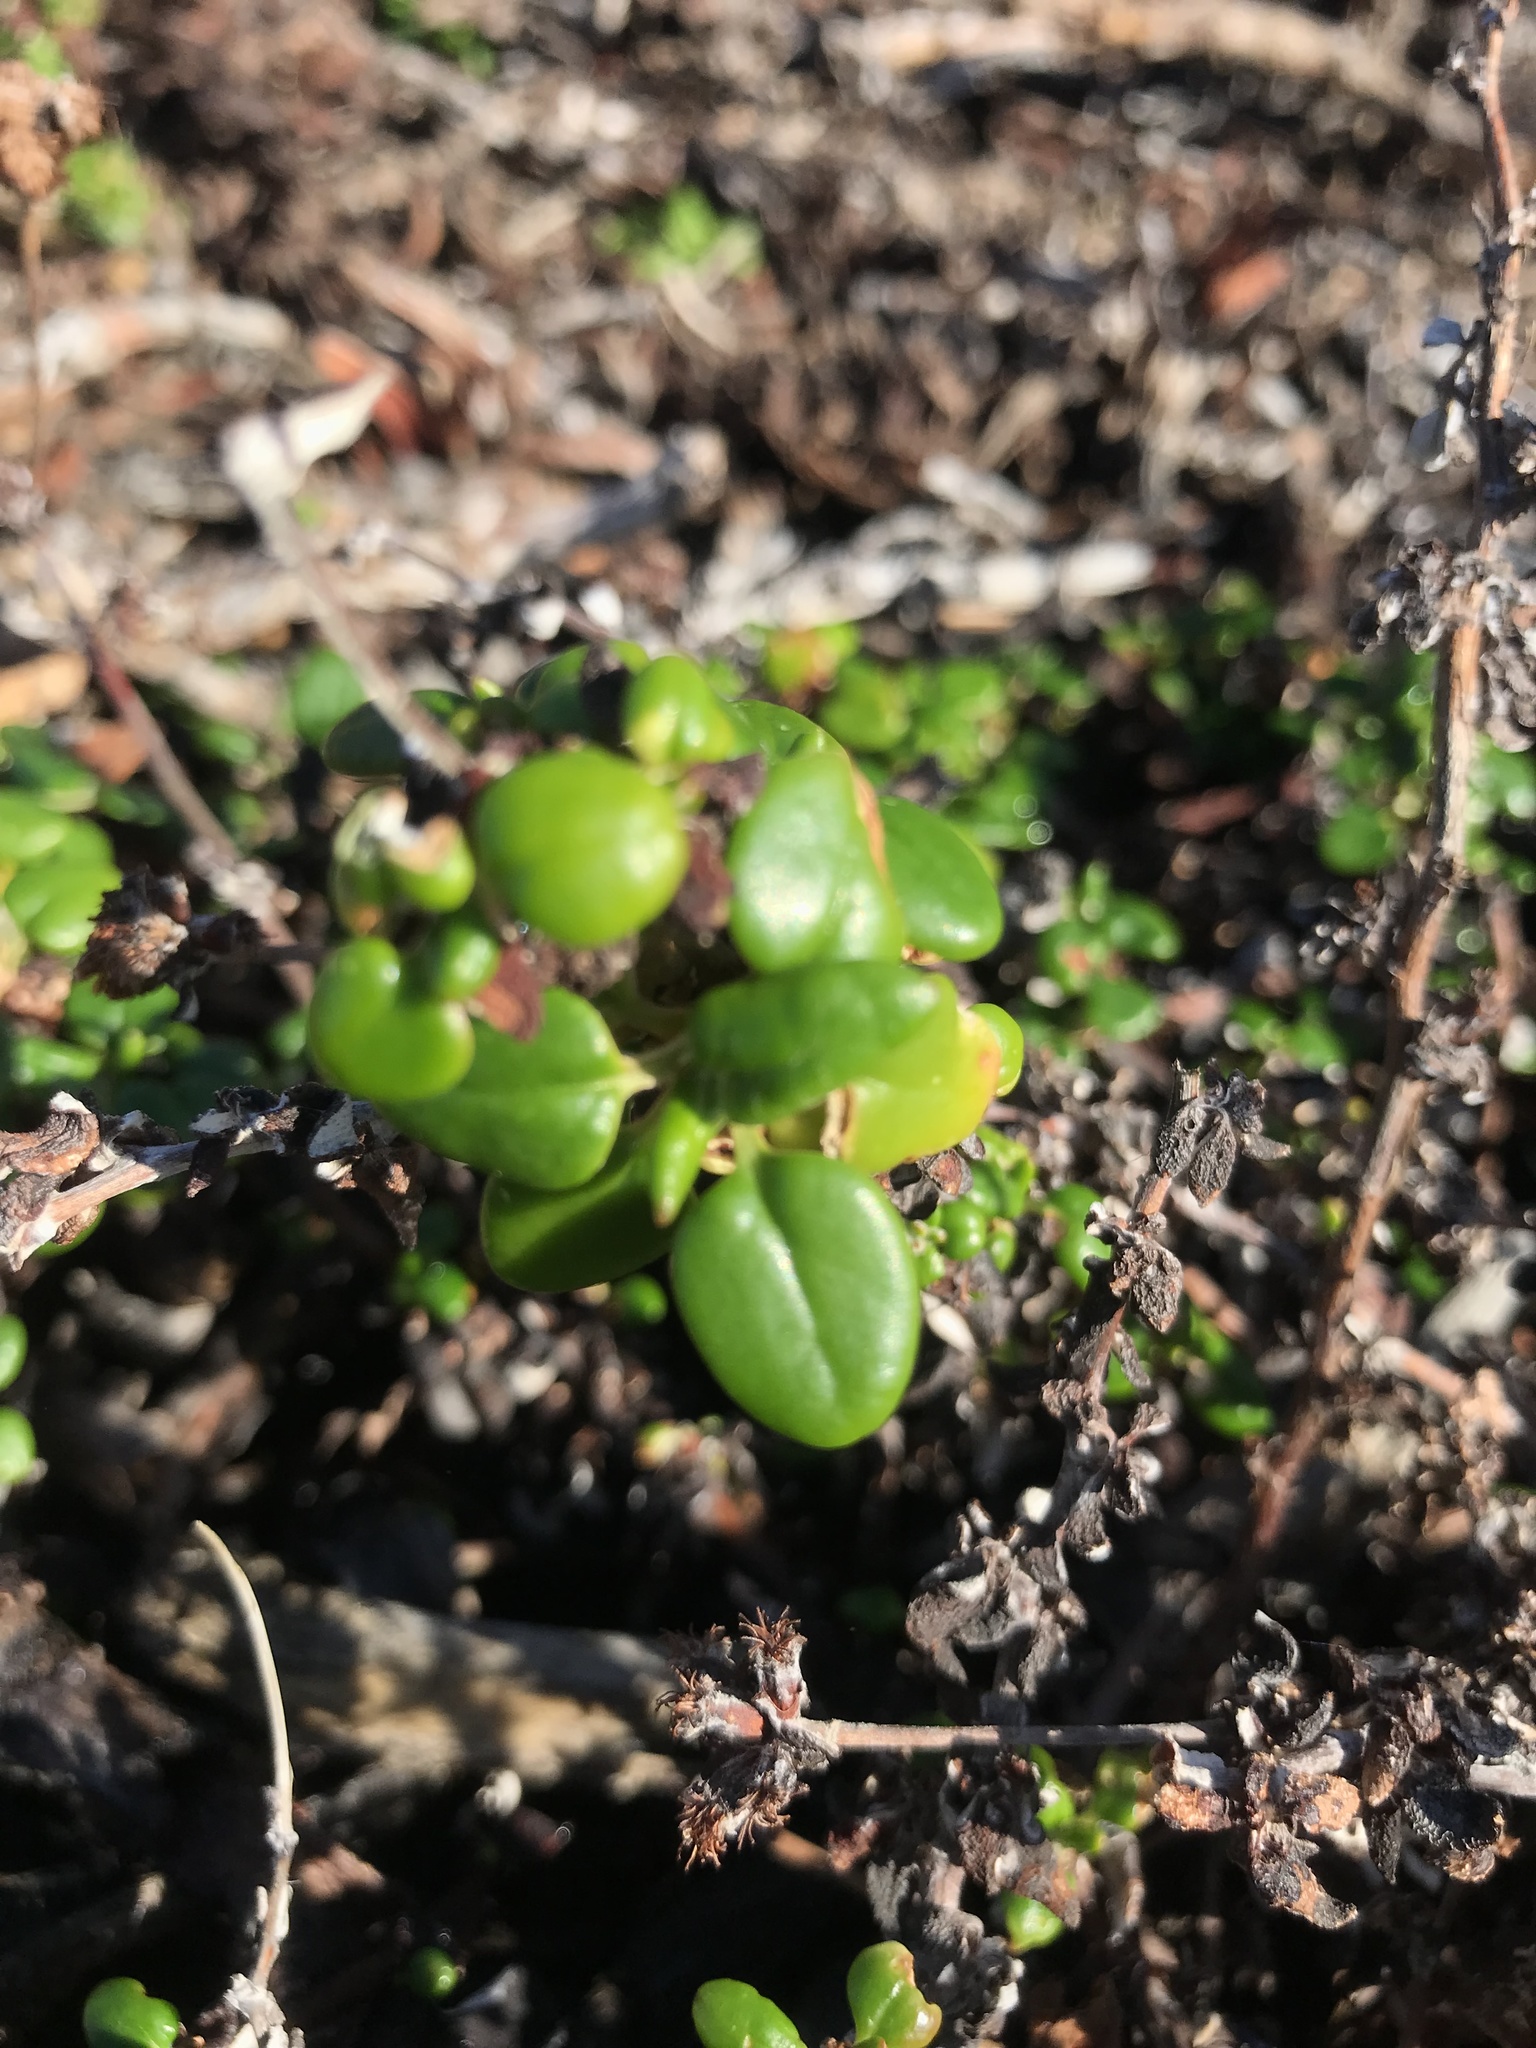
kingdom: Plantae
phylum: Tracheophyta
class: Magnoliopsida
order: Caryophyllales
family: Polygonaceae
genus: Eriogonum
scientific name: Eriogonum parvifolium
